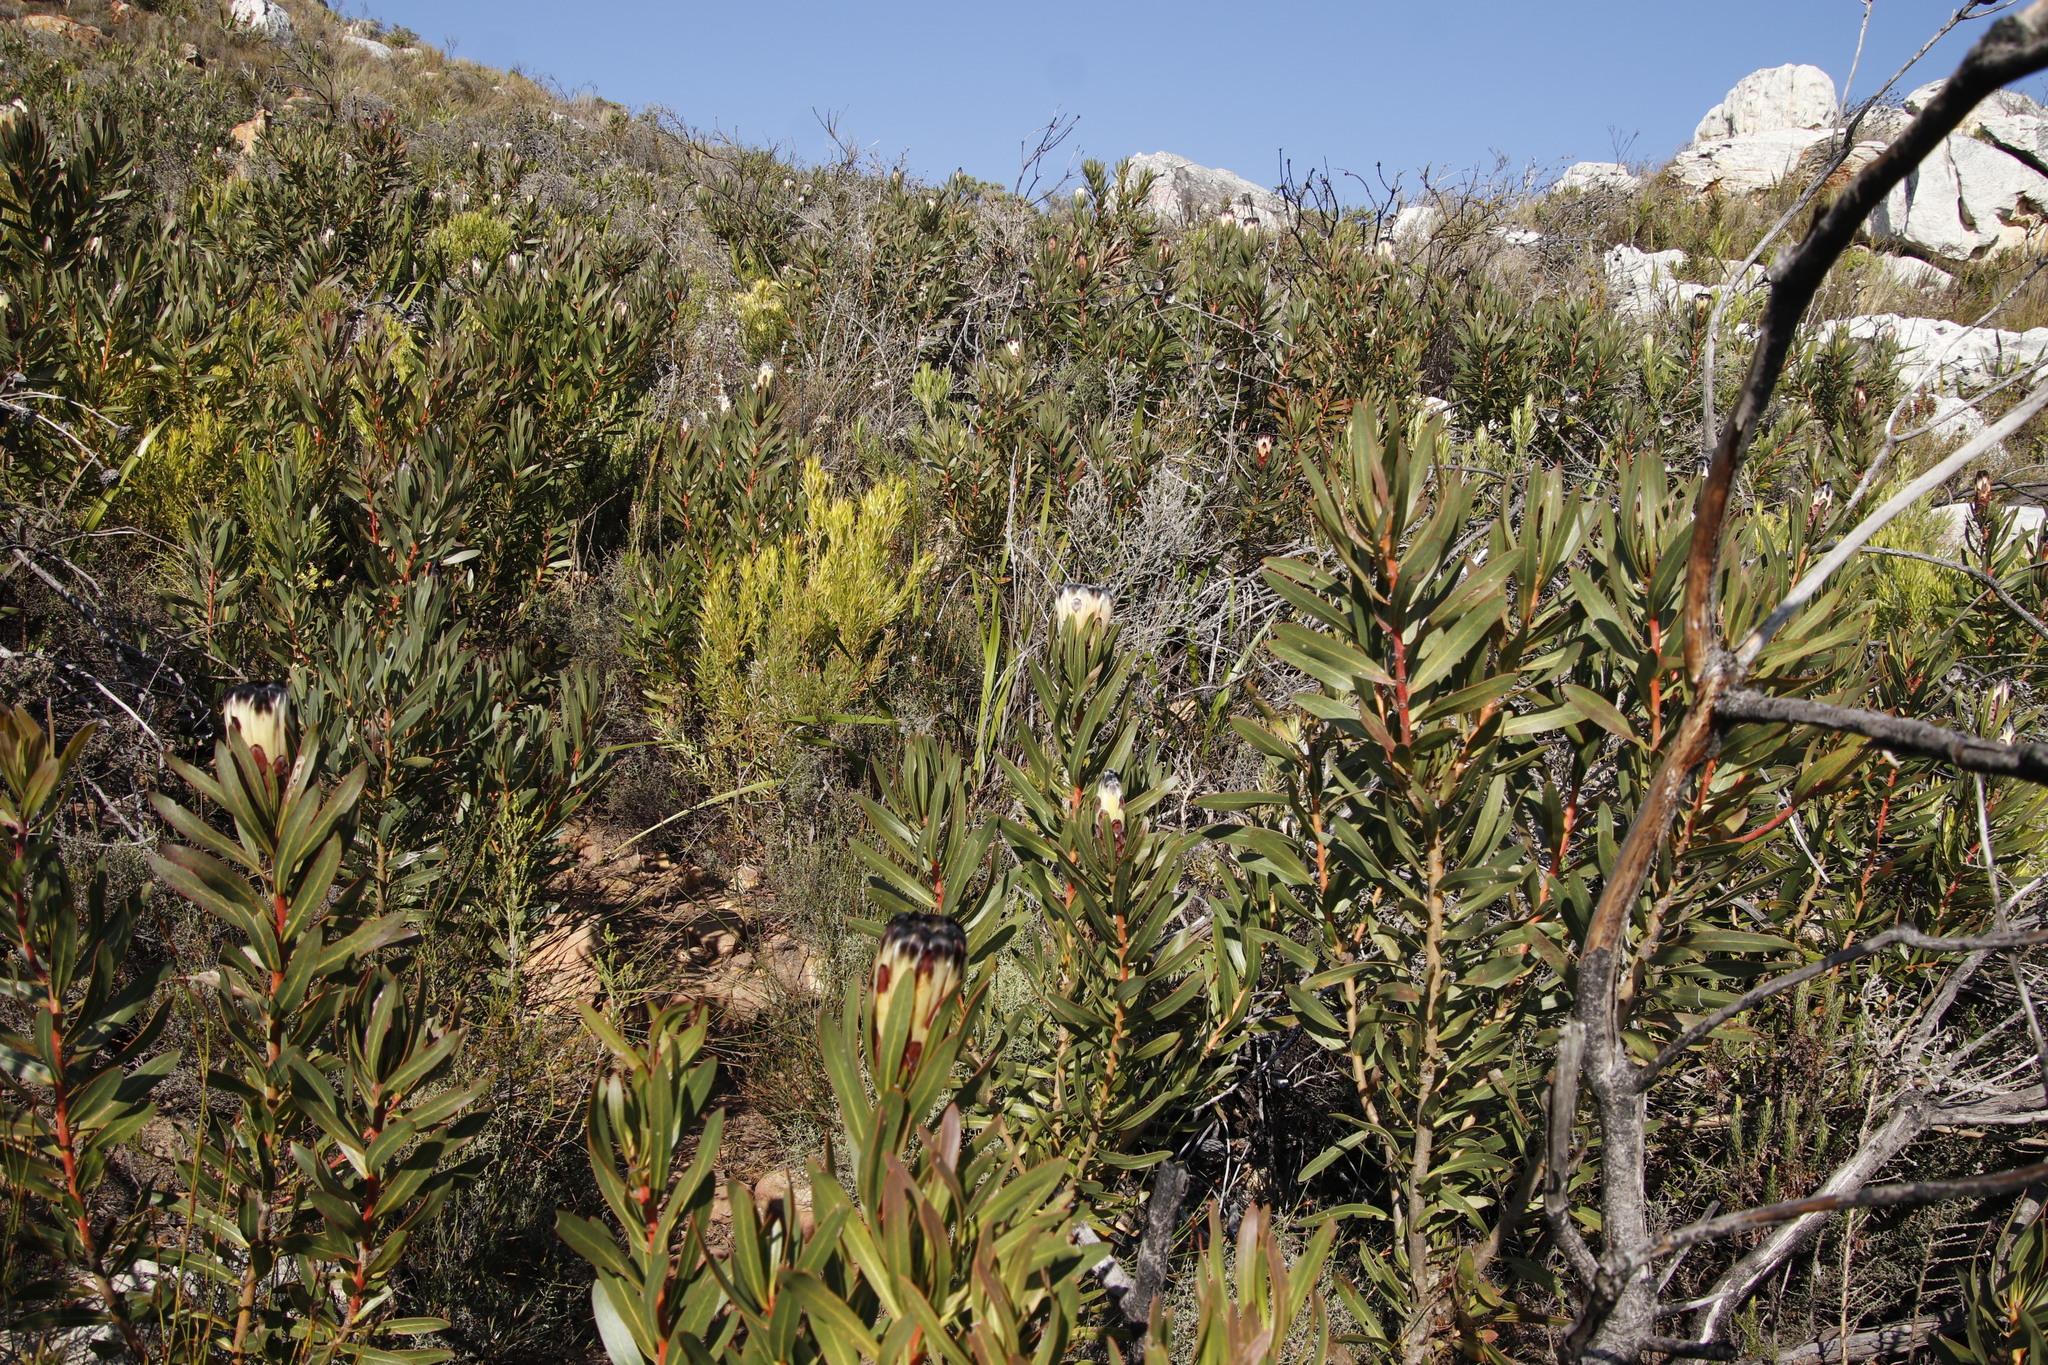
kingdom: Plantae
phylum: Tracheophyta
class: Magnoliopsida
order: Proteales
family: Proteaceae
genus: Protea
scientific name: Protea lepidocarpodendron
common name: Black-bearded protea
